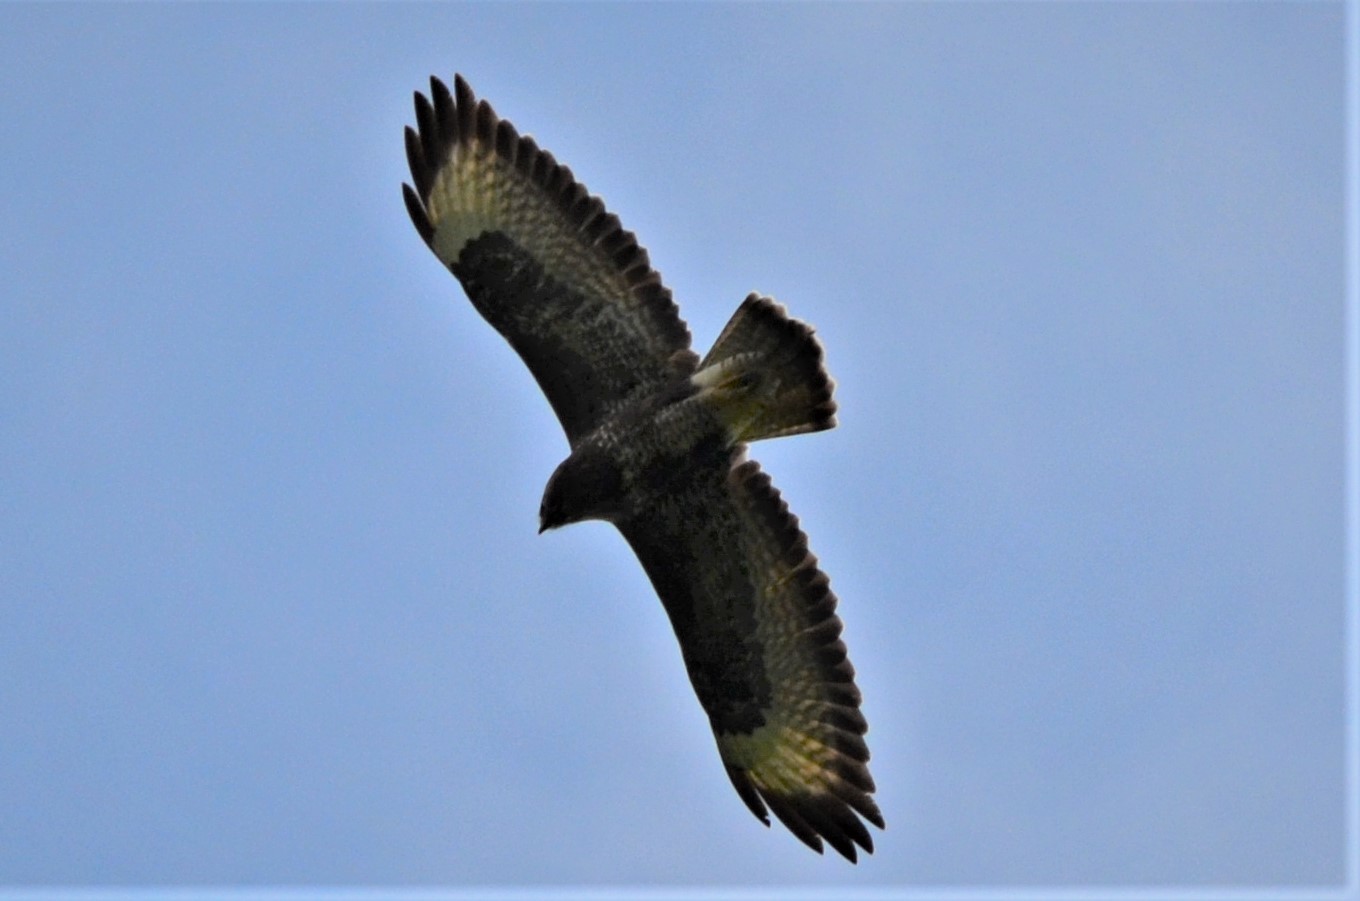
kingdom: Animalia
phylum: Chordata
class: Aves
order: Accipitriformes
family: Accipitridae
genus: Buteo
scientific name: Buteo buteo
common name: Common buzzard
